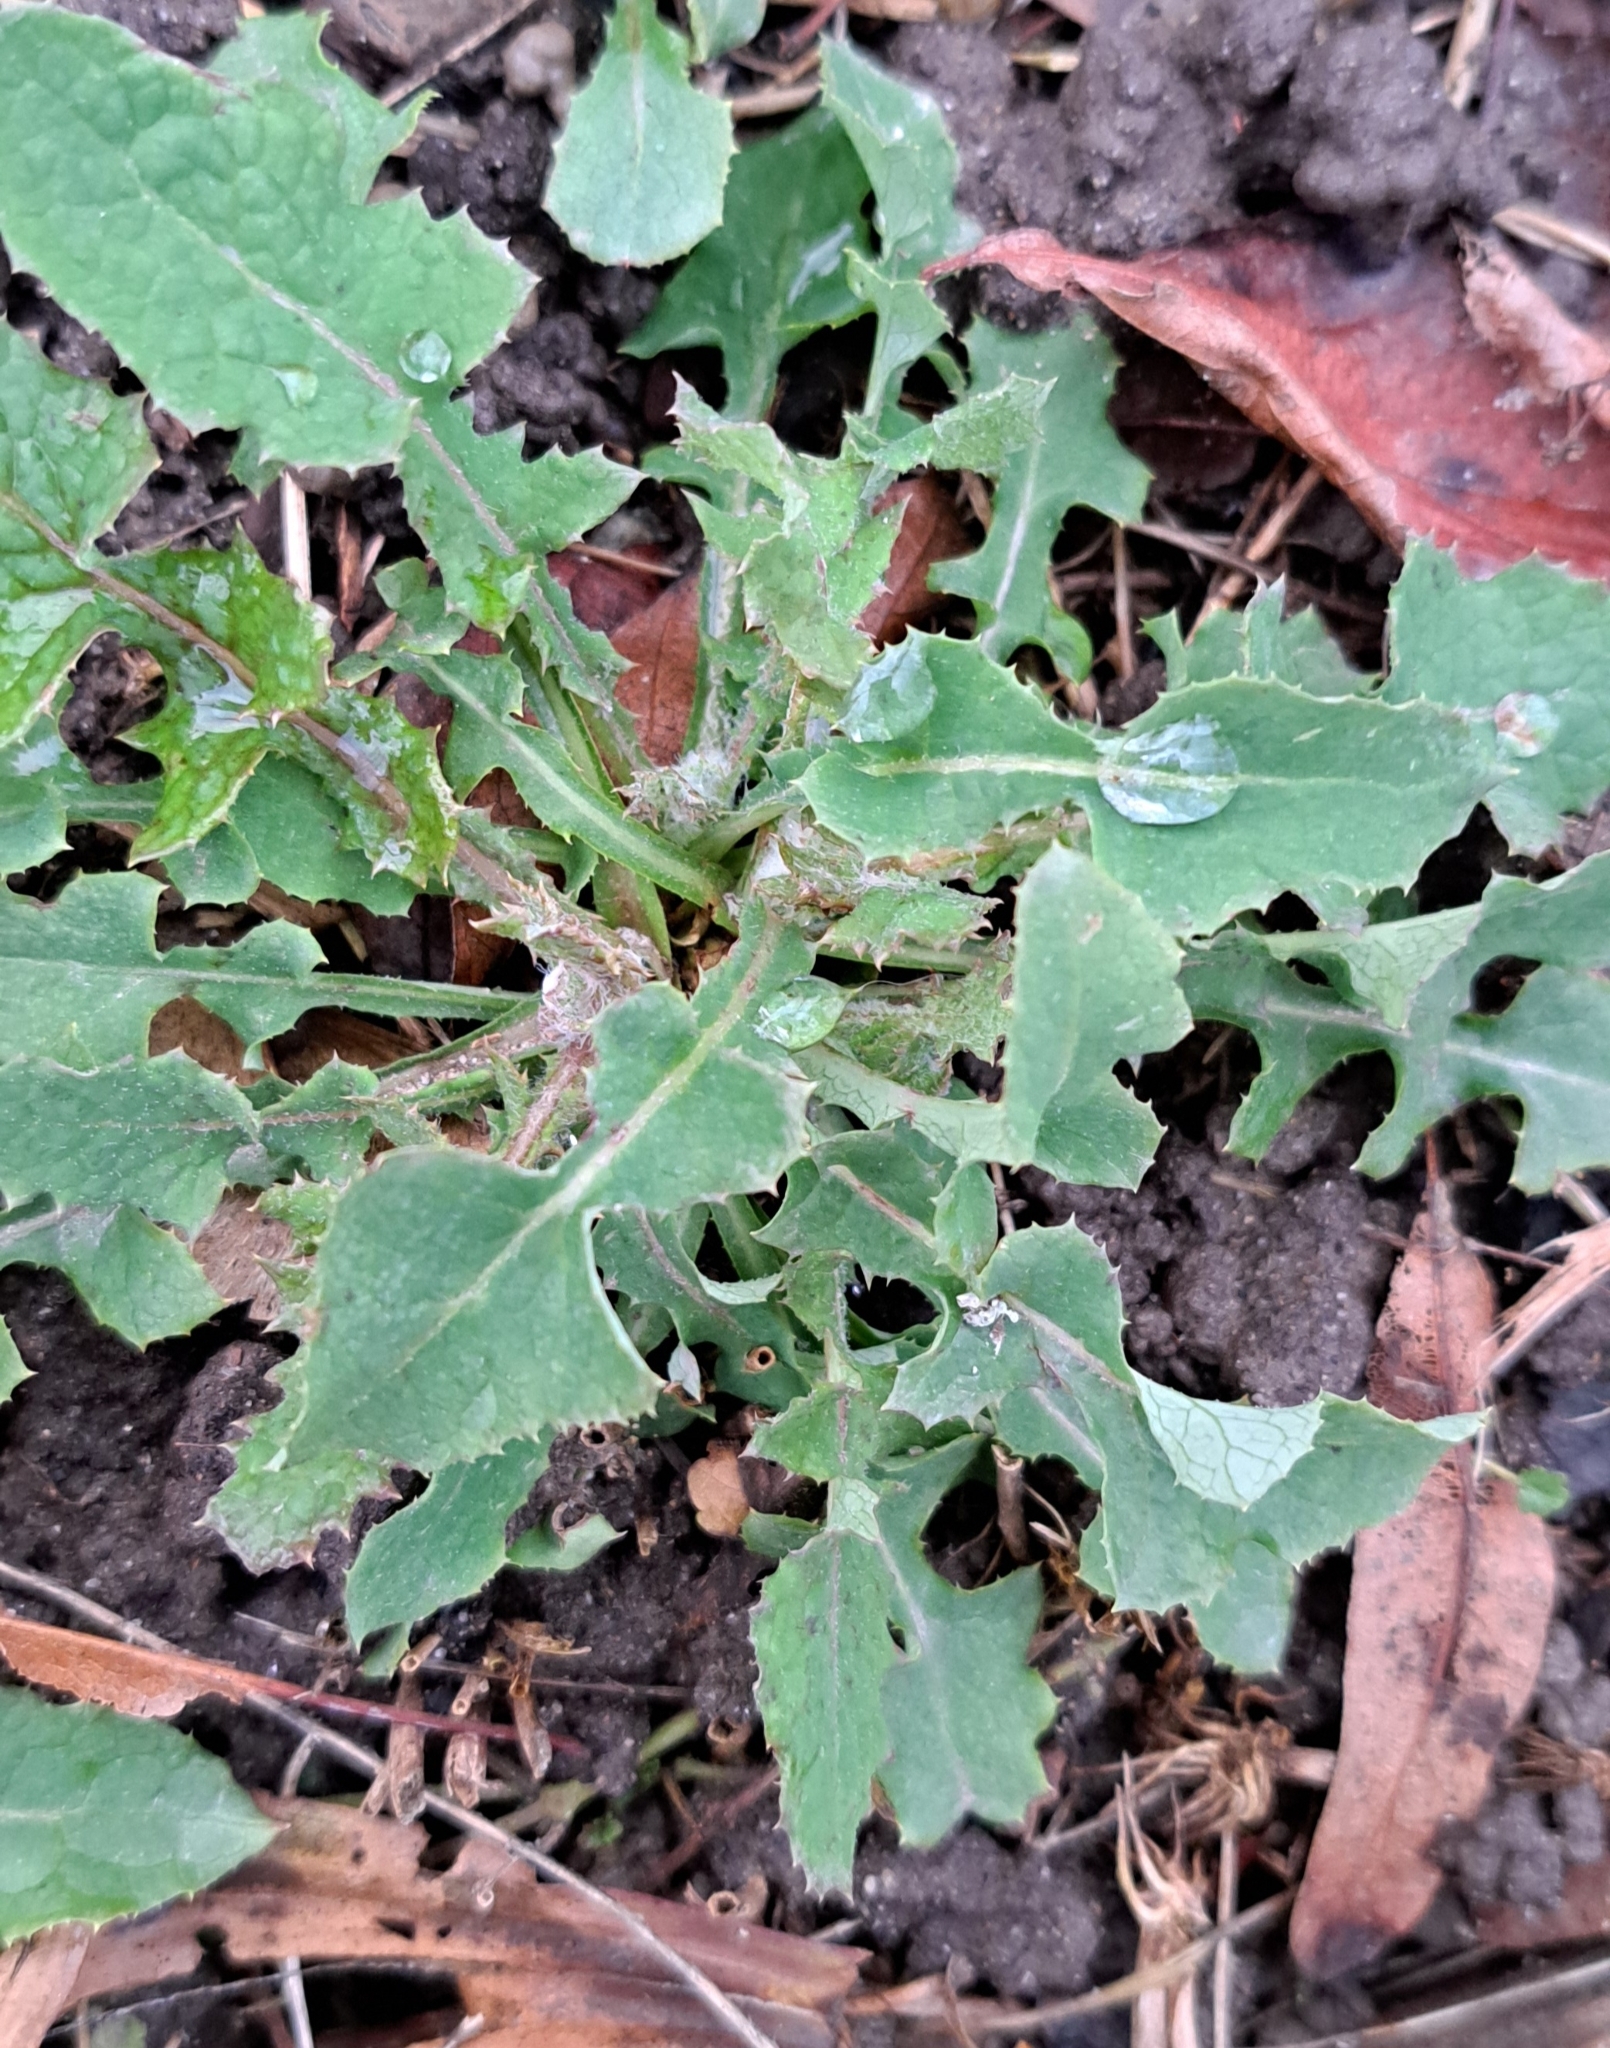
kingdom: Plantae
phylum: Tracheophyta
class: Magnoliopsida
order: Asterales
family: Asteraceae
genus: Sonchus
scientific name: Sonchus oleraceus
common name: Common sowthistle
